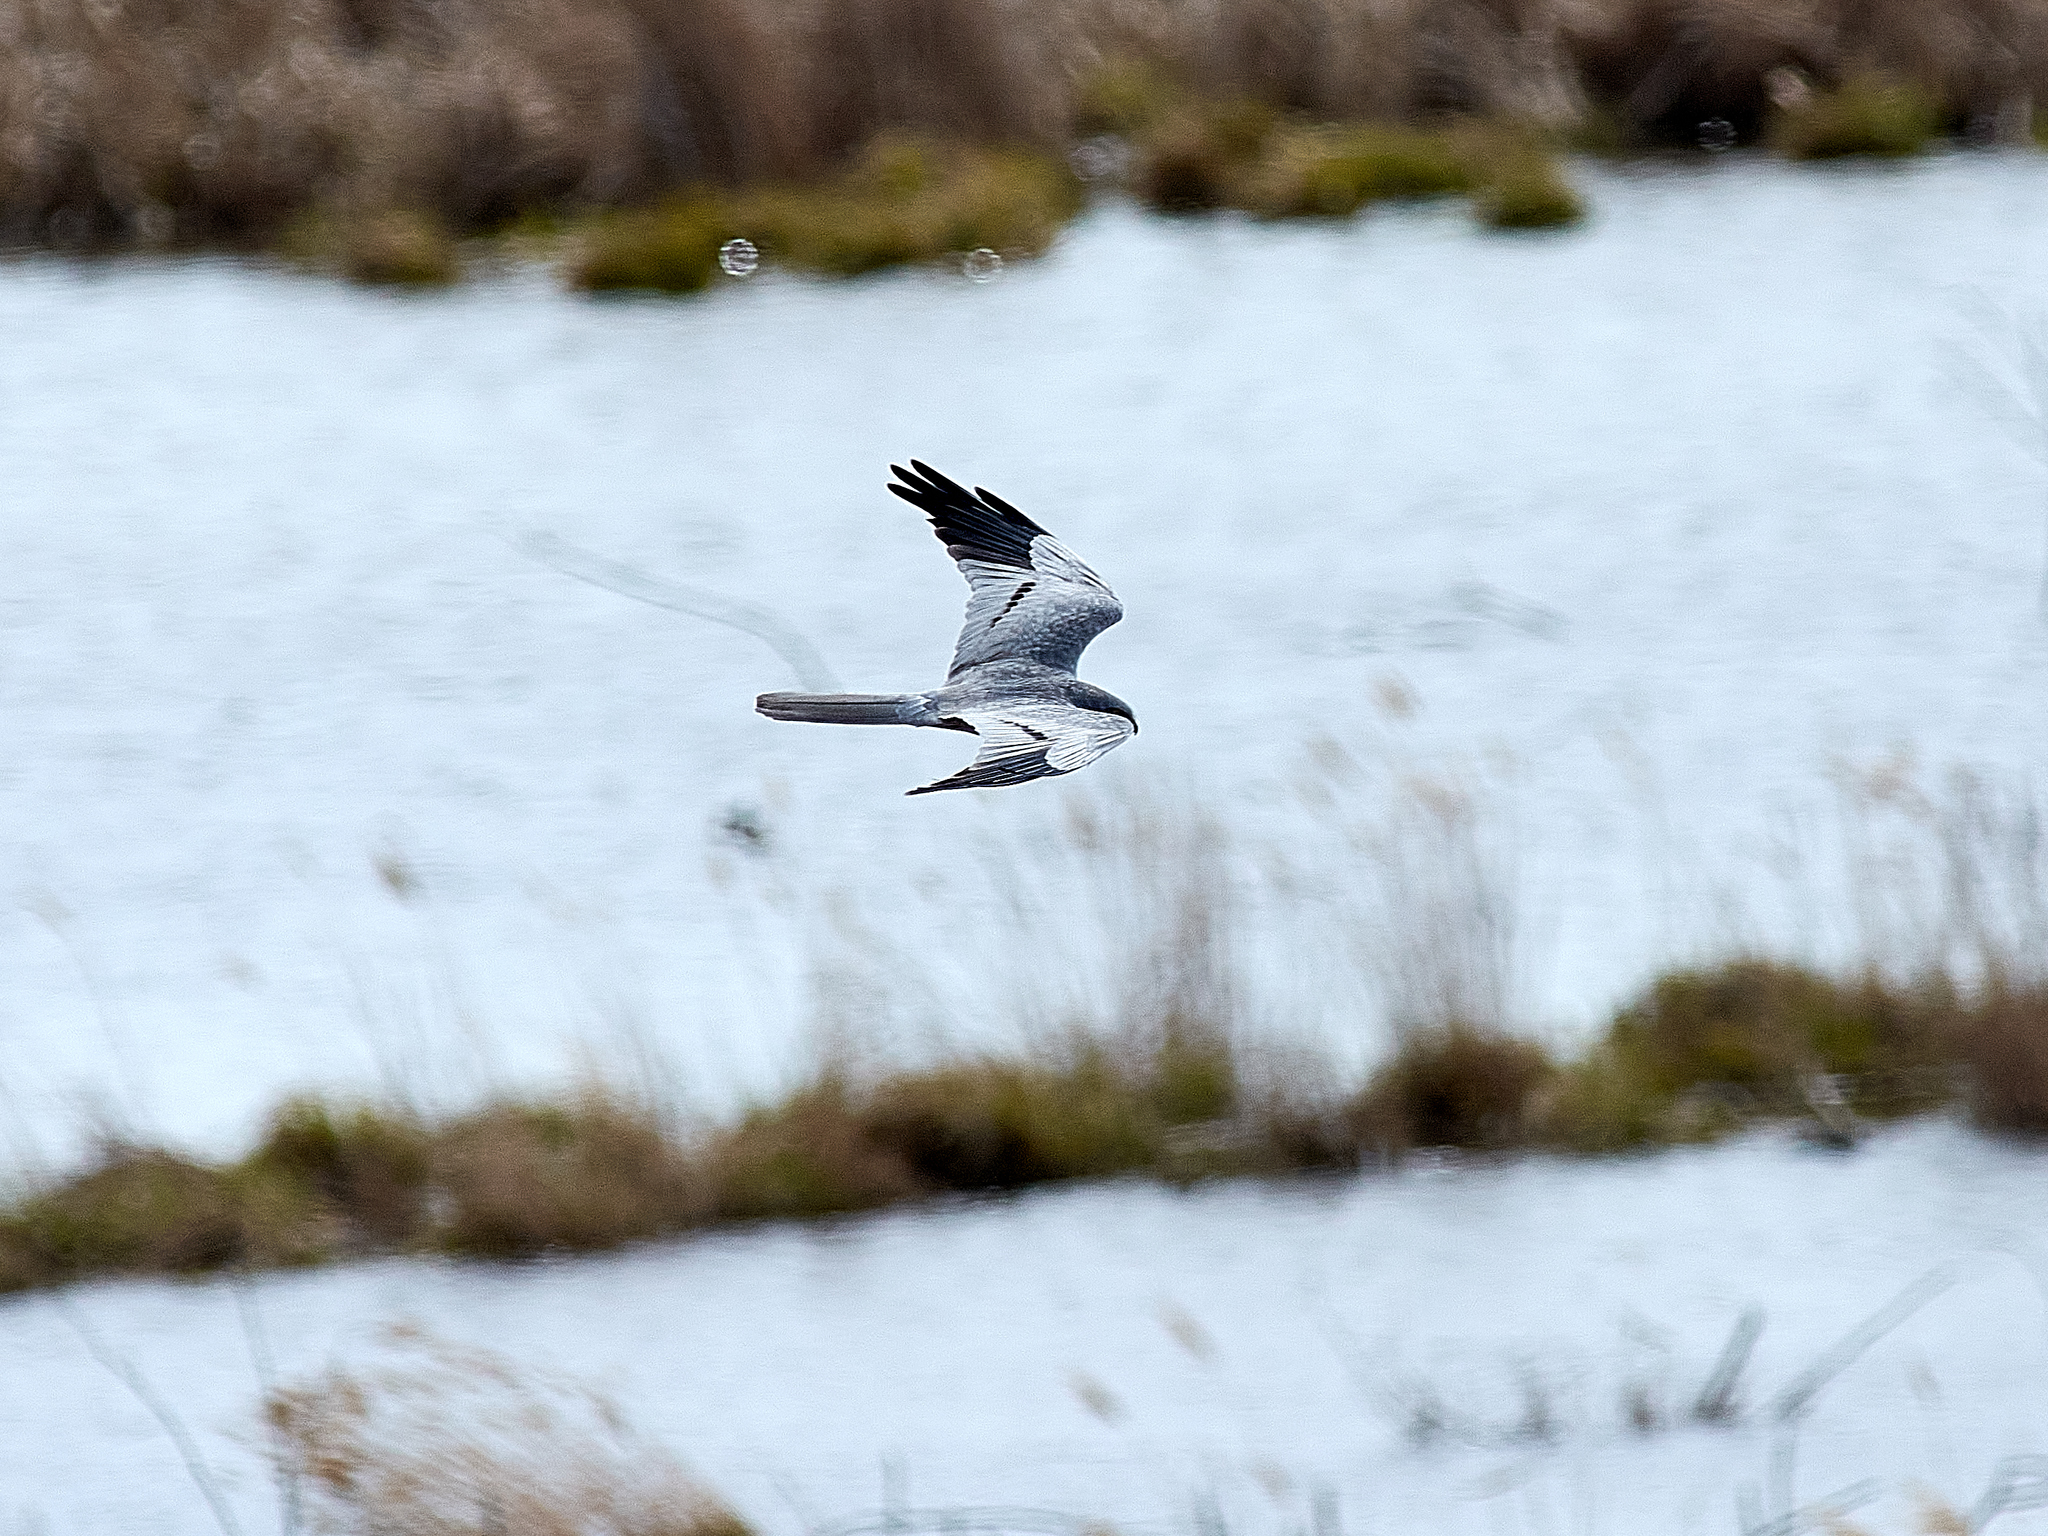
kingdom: Animalia
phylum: Chordata
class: Aves
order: Accipitriformes
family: Accipitridae
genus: Circus
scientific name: Circus pygargus
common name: Montagu's harrier
